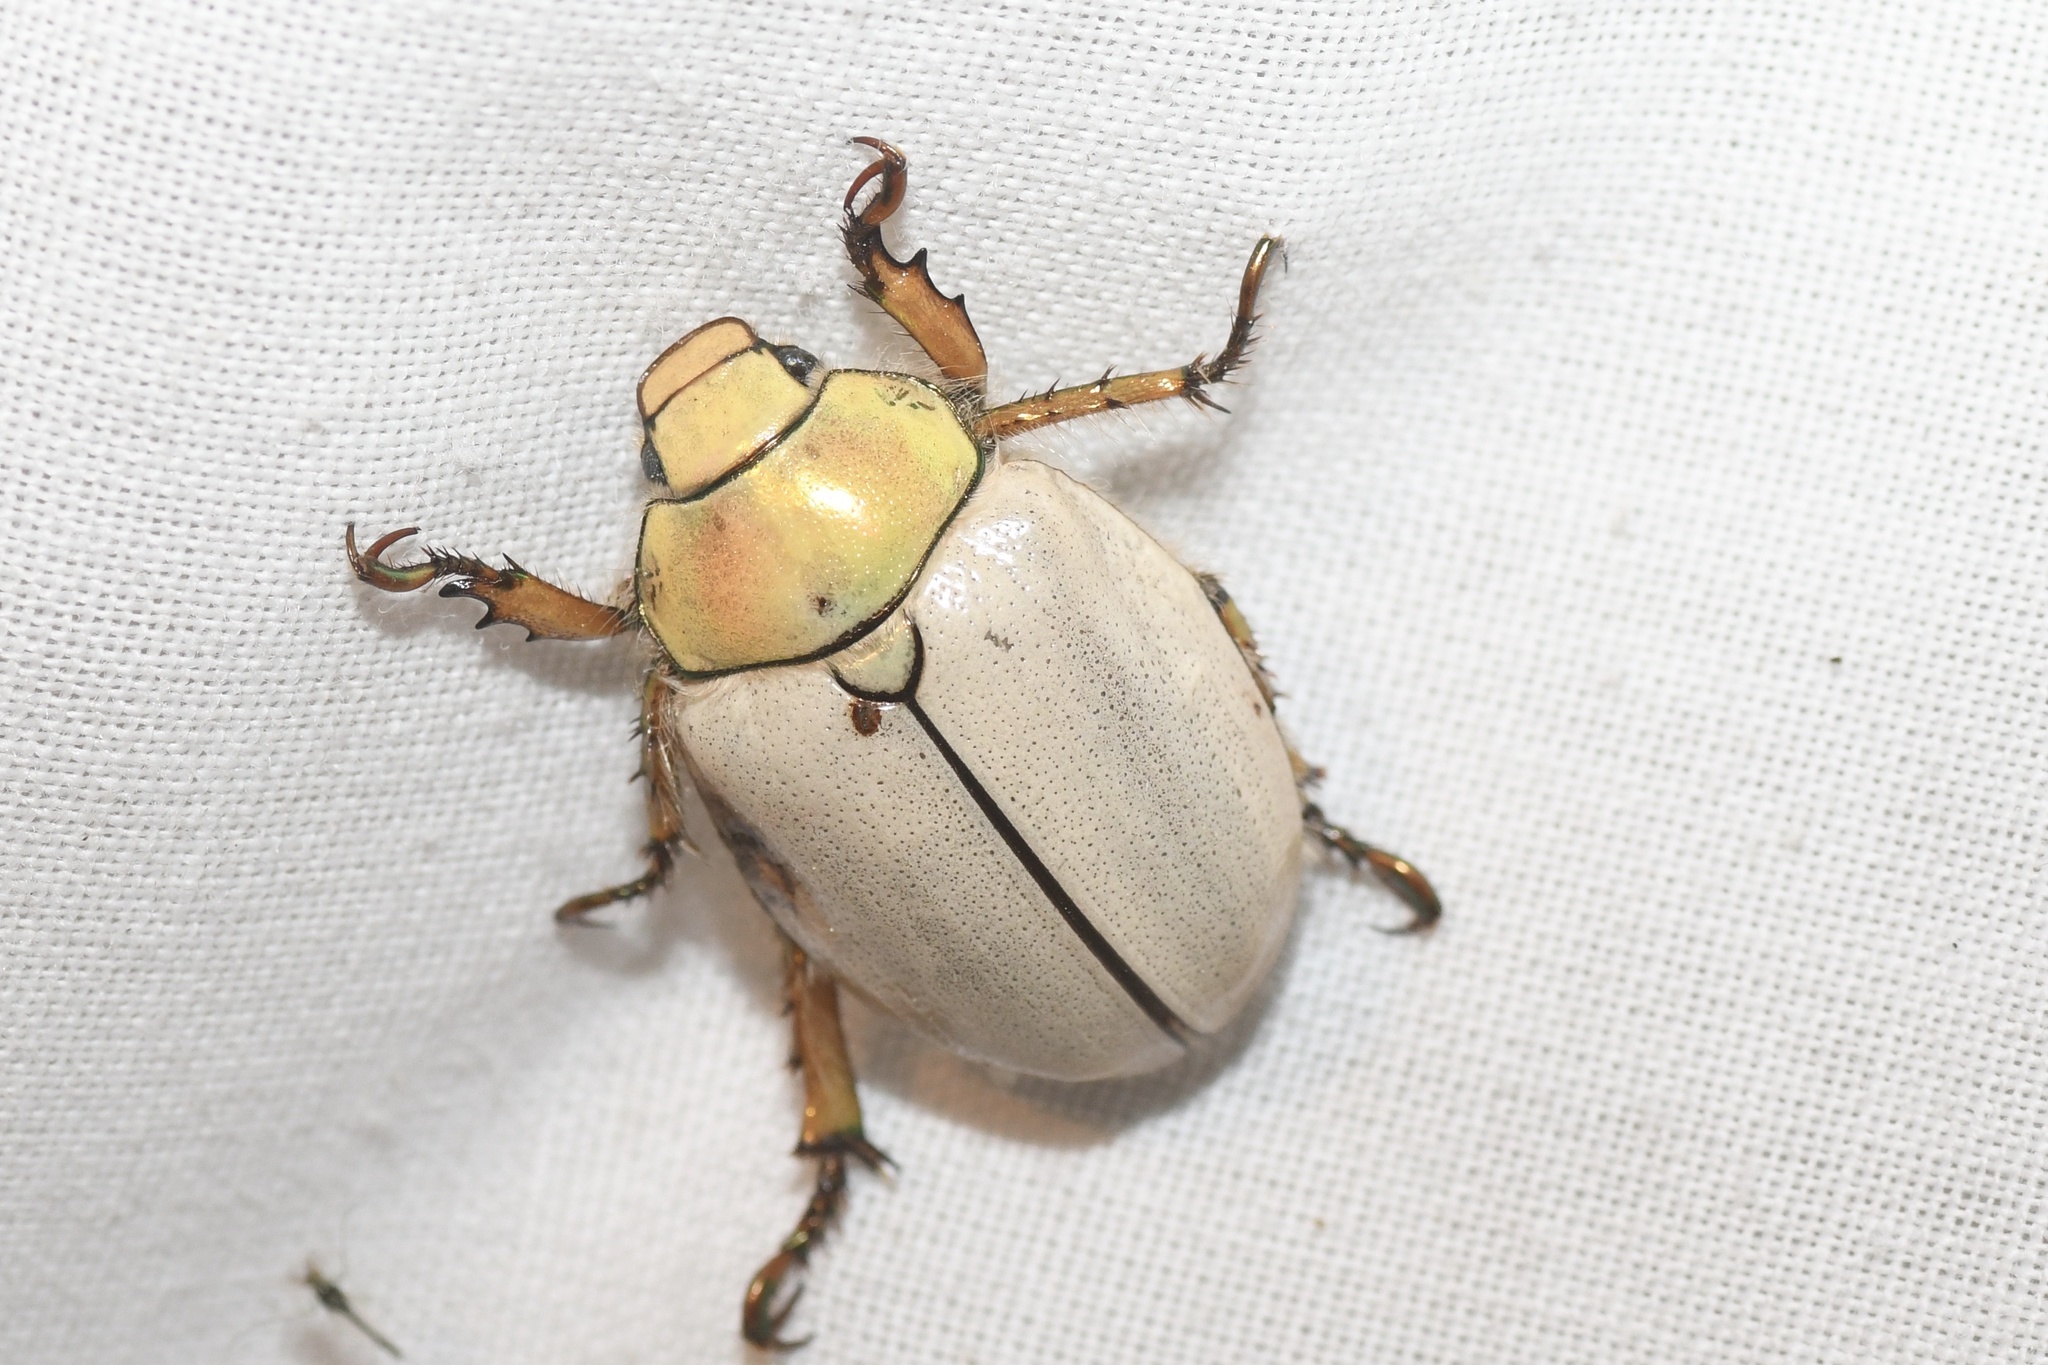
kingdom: Animalia
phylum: Arthropoda
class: Insecta
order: Coleoptera
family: Scarabaeidae
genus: Cotalpa
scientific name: Cotalpa lanigera
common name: Goldsmith beetle
